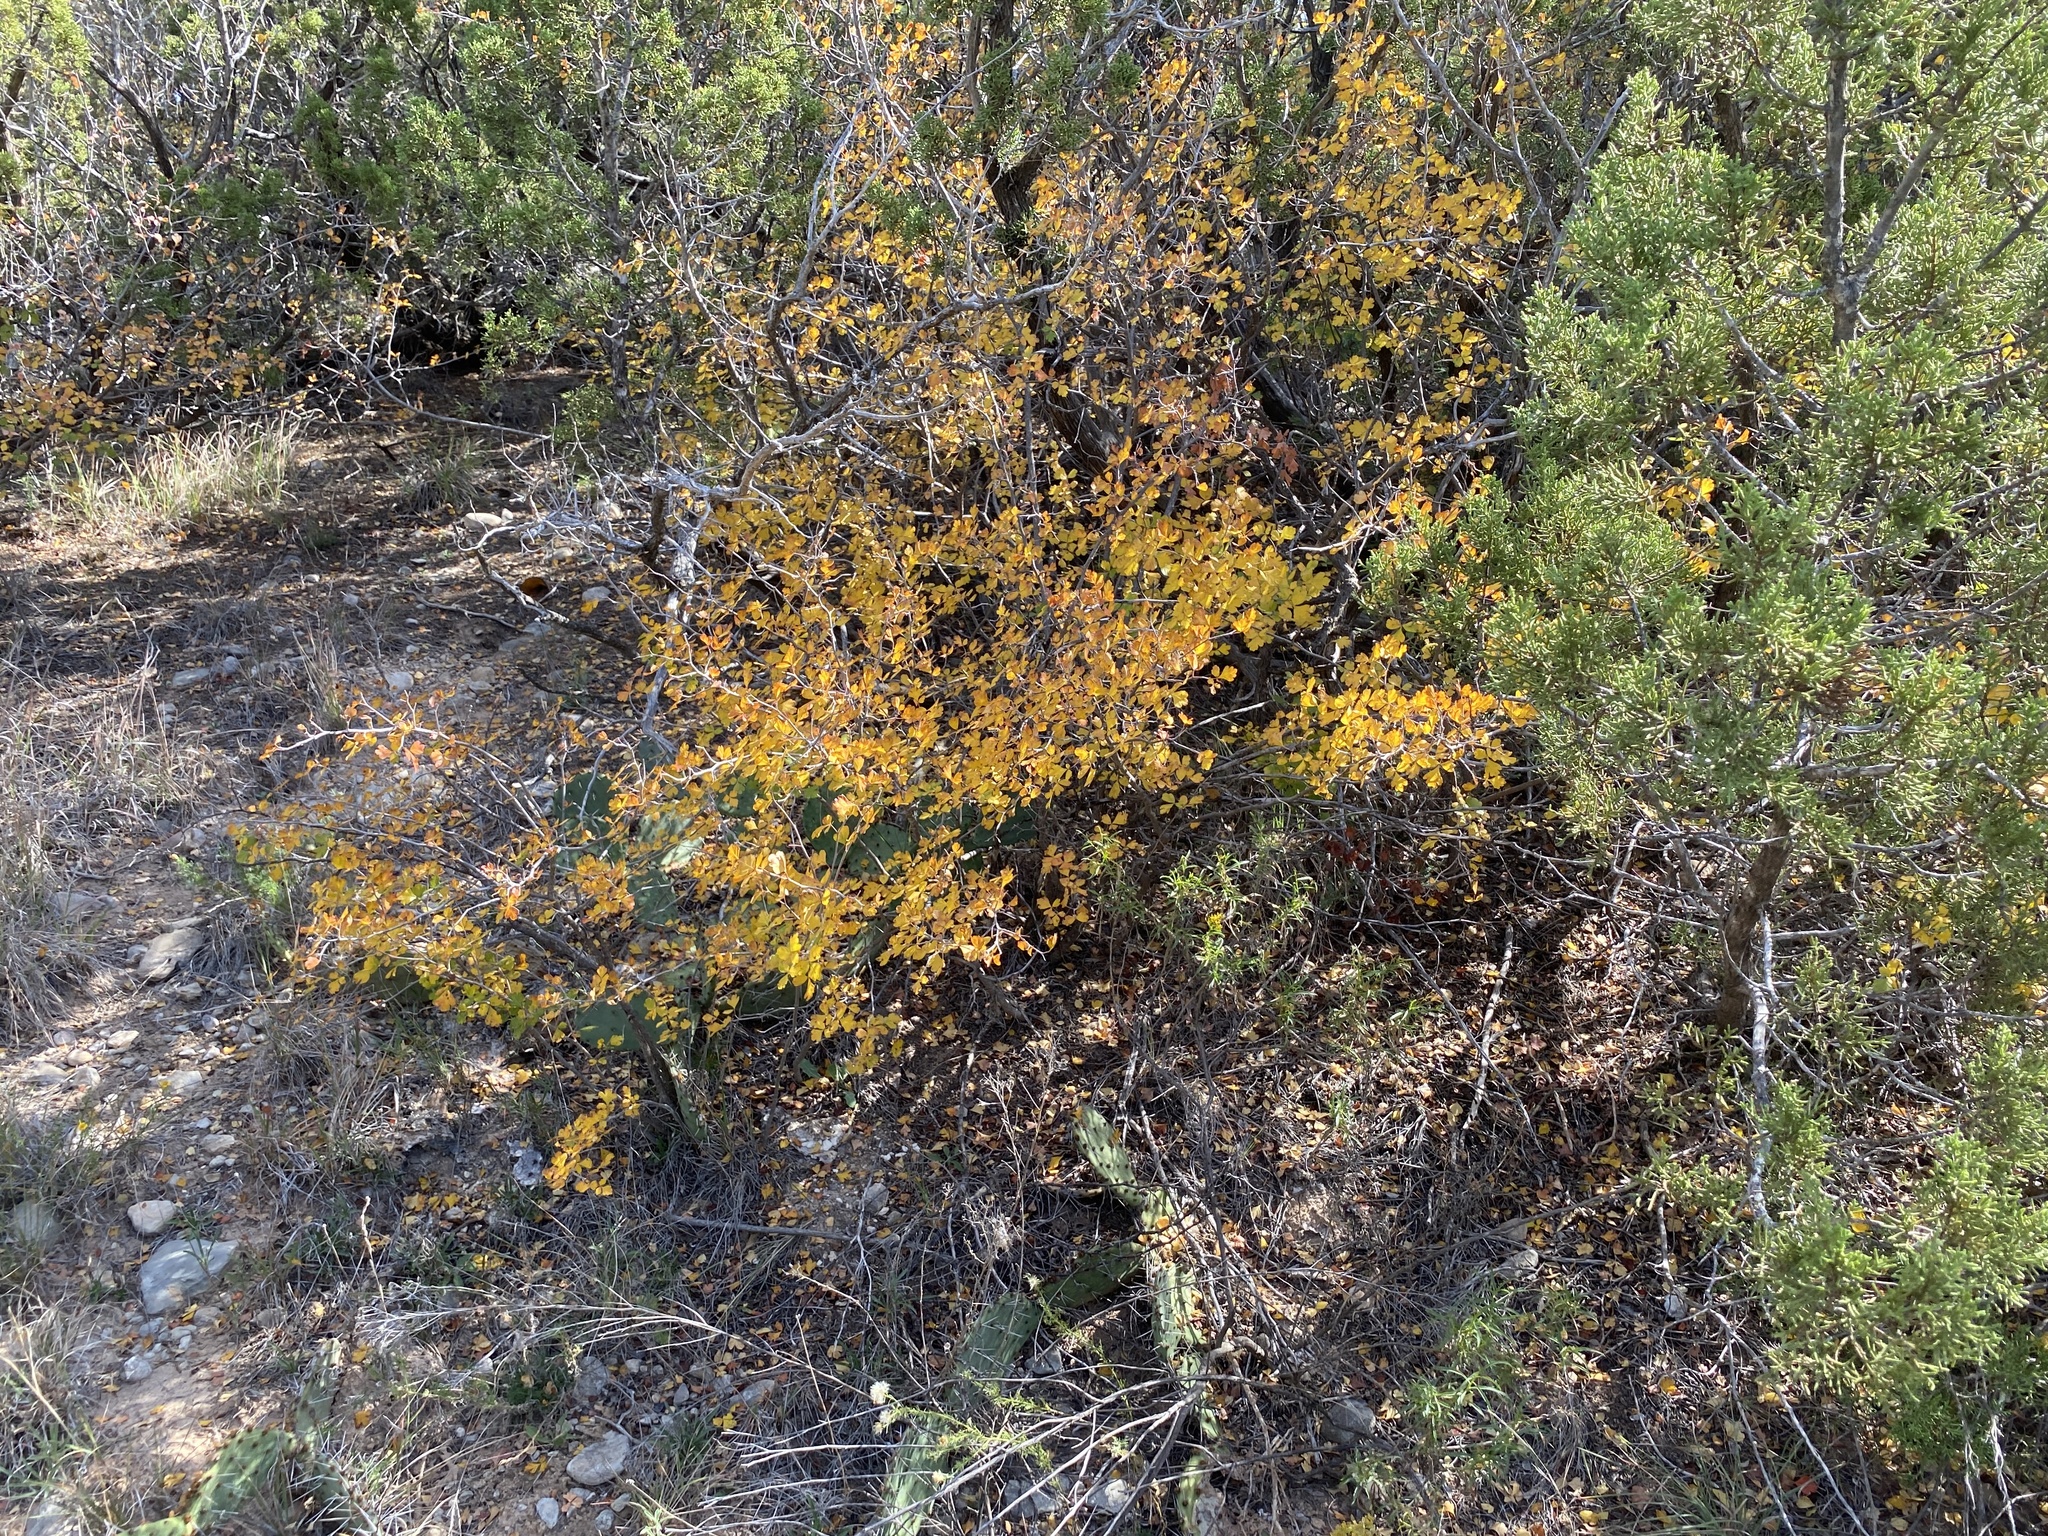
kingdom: Plantae
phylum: Tracheophyta
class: Magnoliopsida
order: Sapindales
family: Anacardiaceae
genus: Rhus
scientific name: Rhus aromatica
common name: Aromatic sumac
